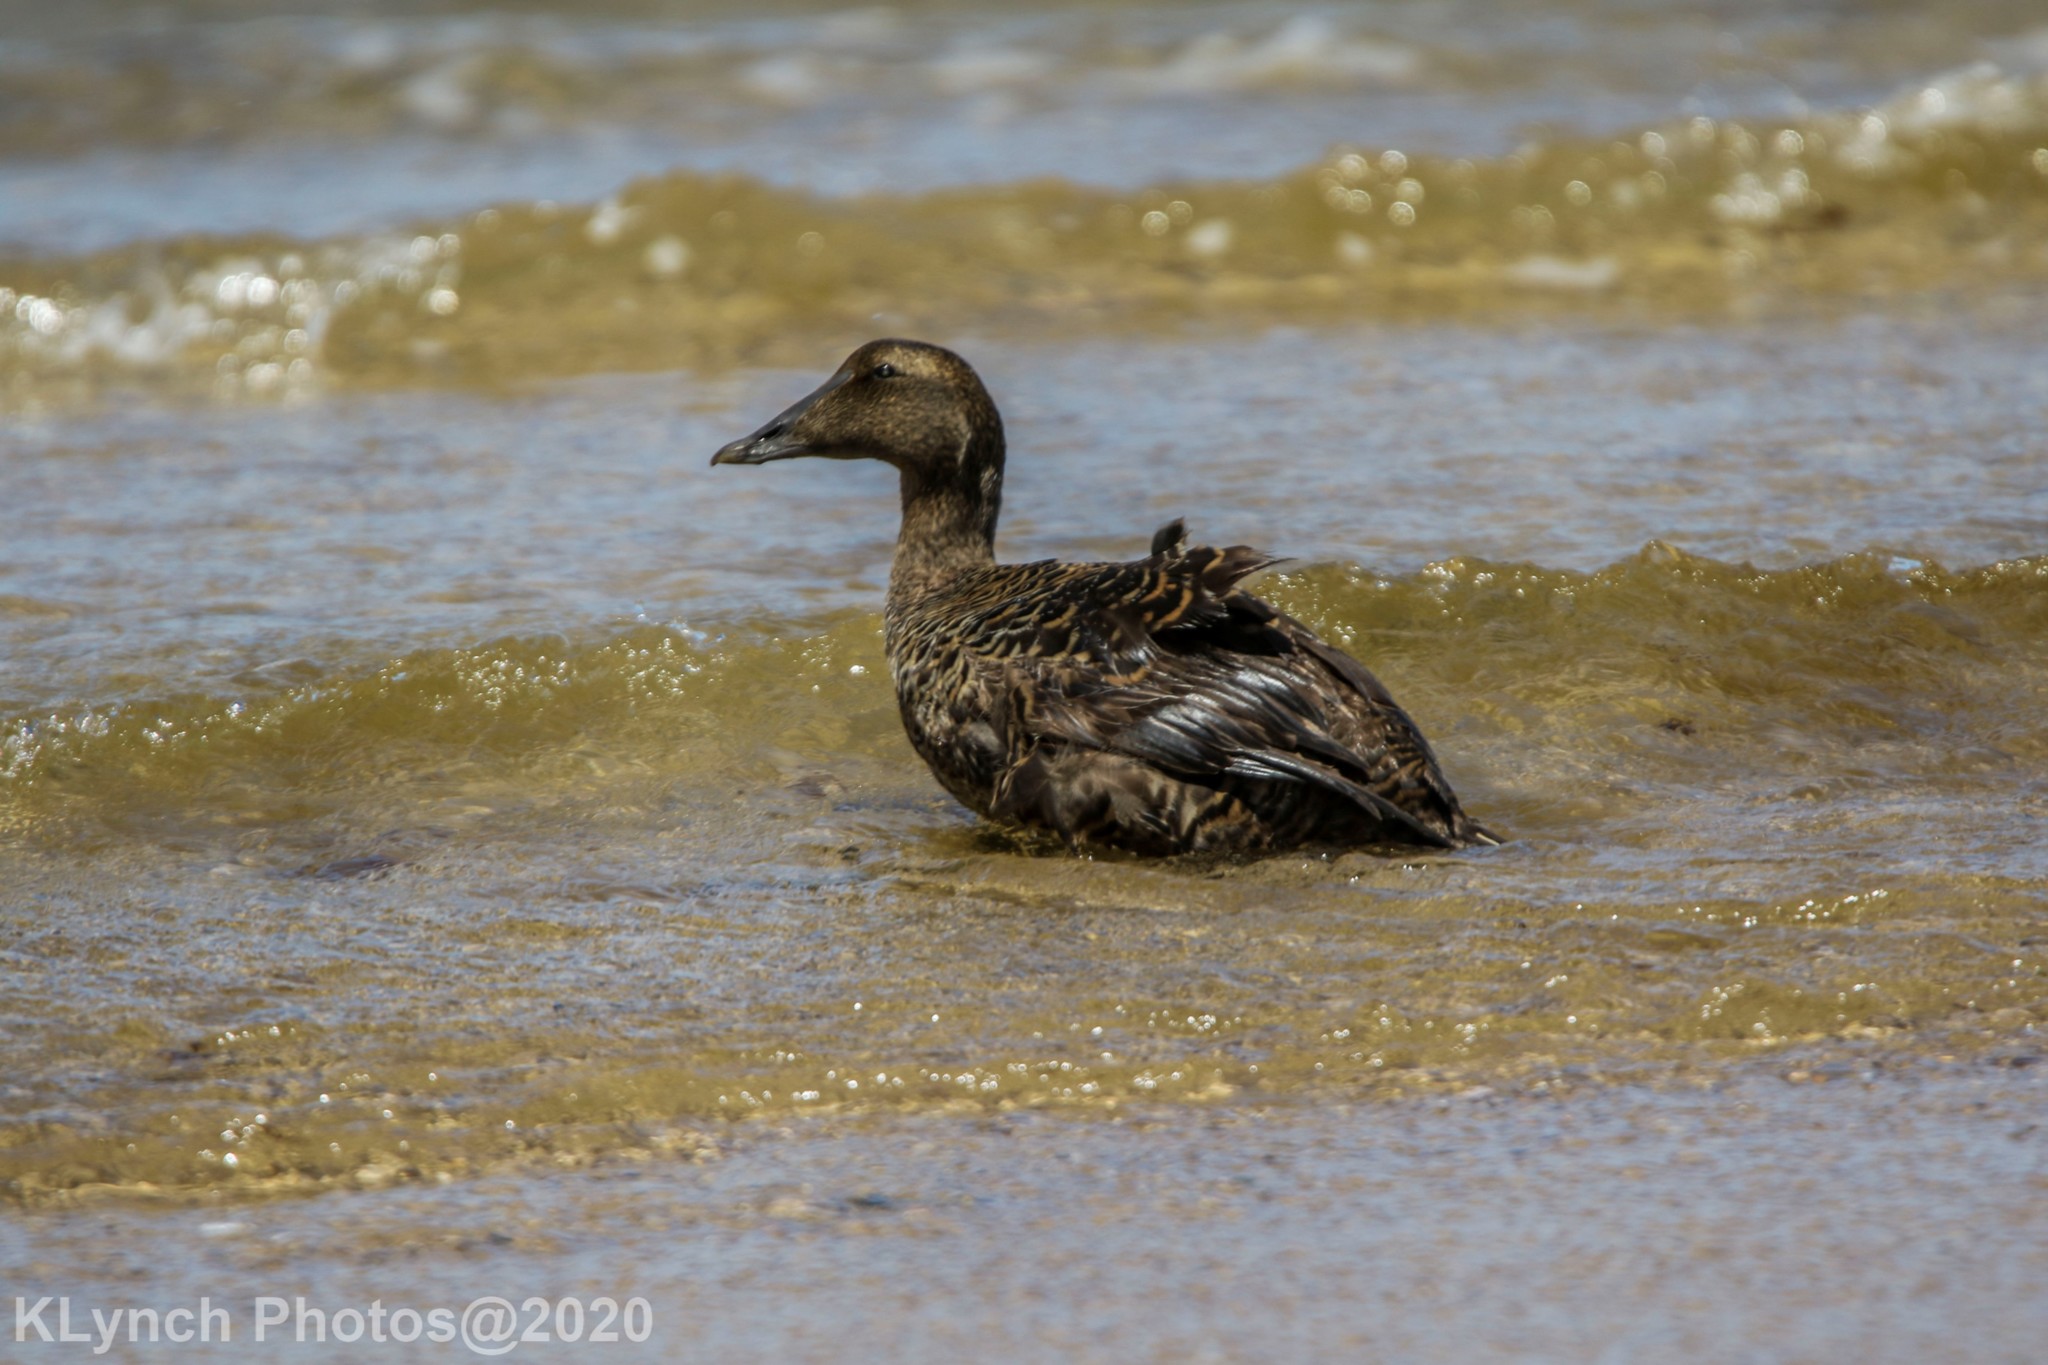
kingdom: Animalia
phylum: Chordata
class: Aves
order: Anseriformes
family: Anatidae
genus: Somateria
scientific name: Somateria mollissima
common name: Common eider
